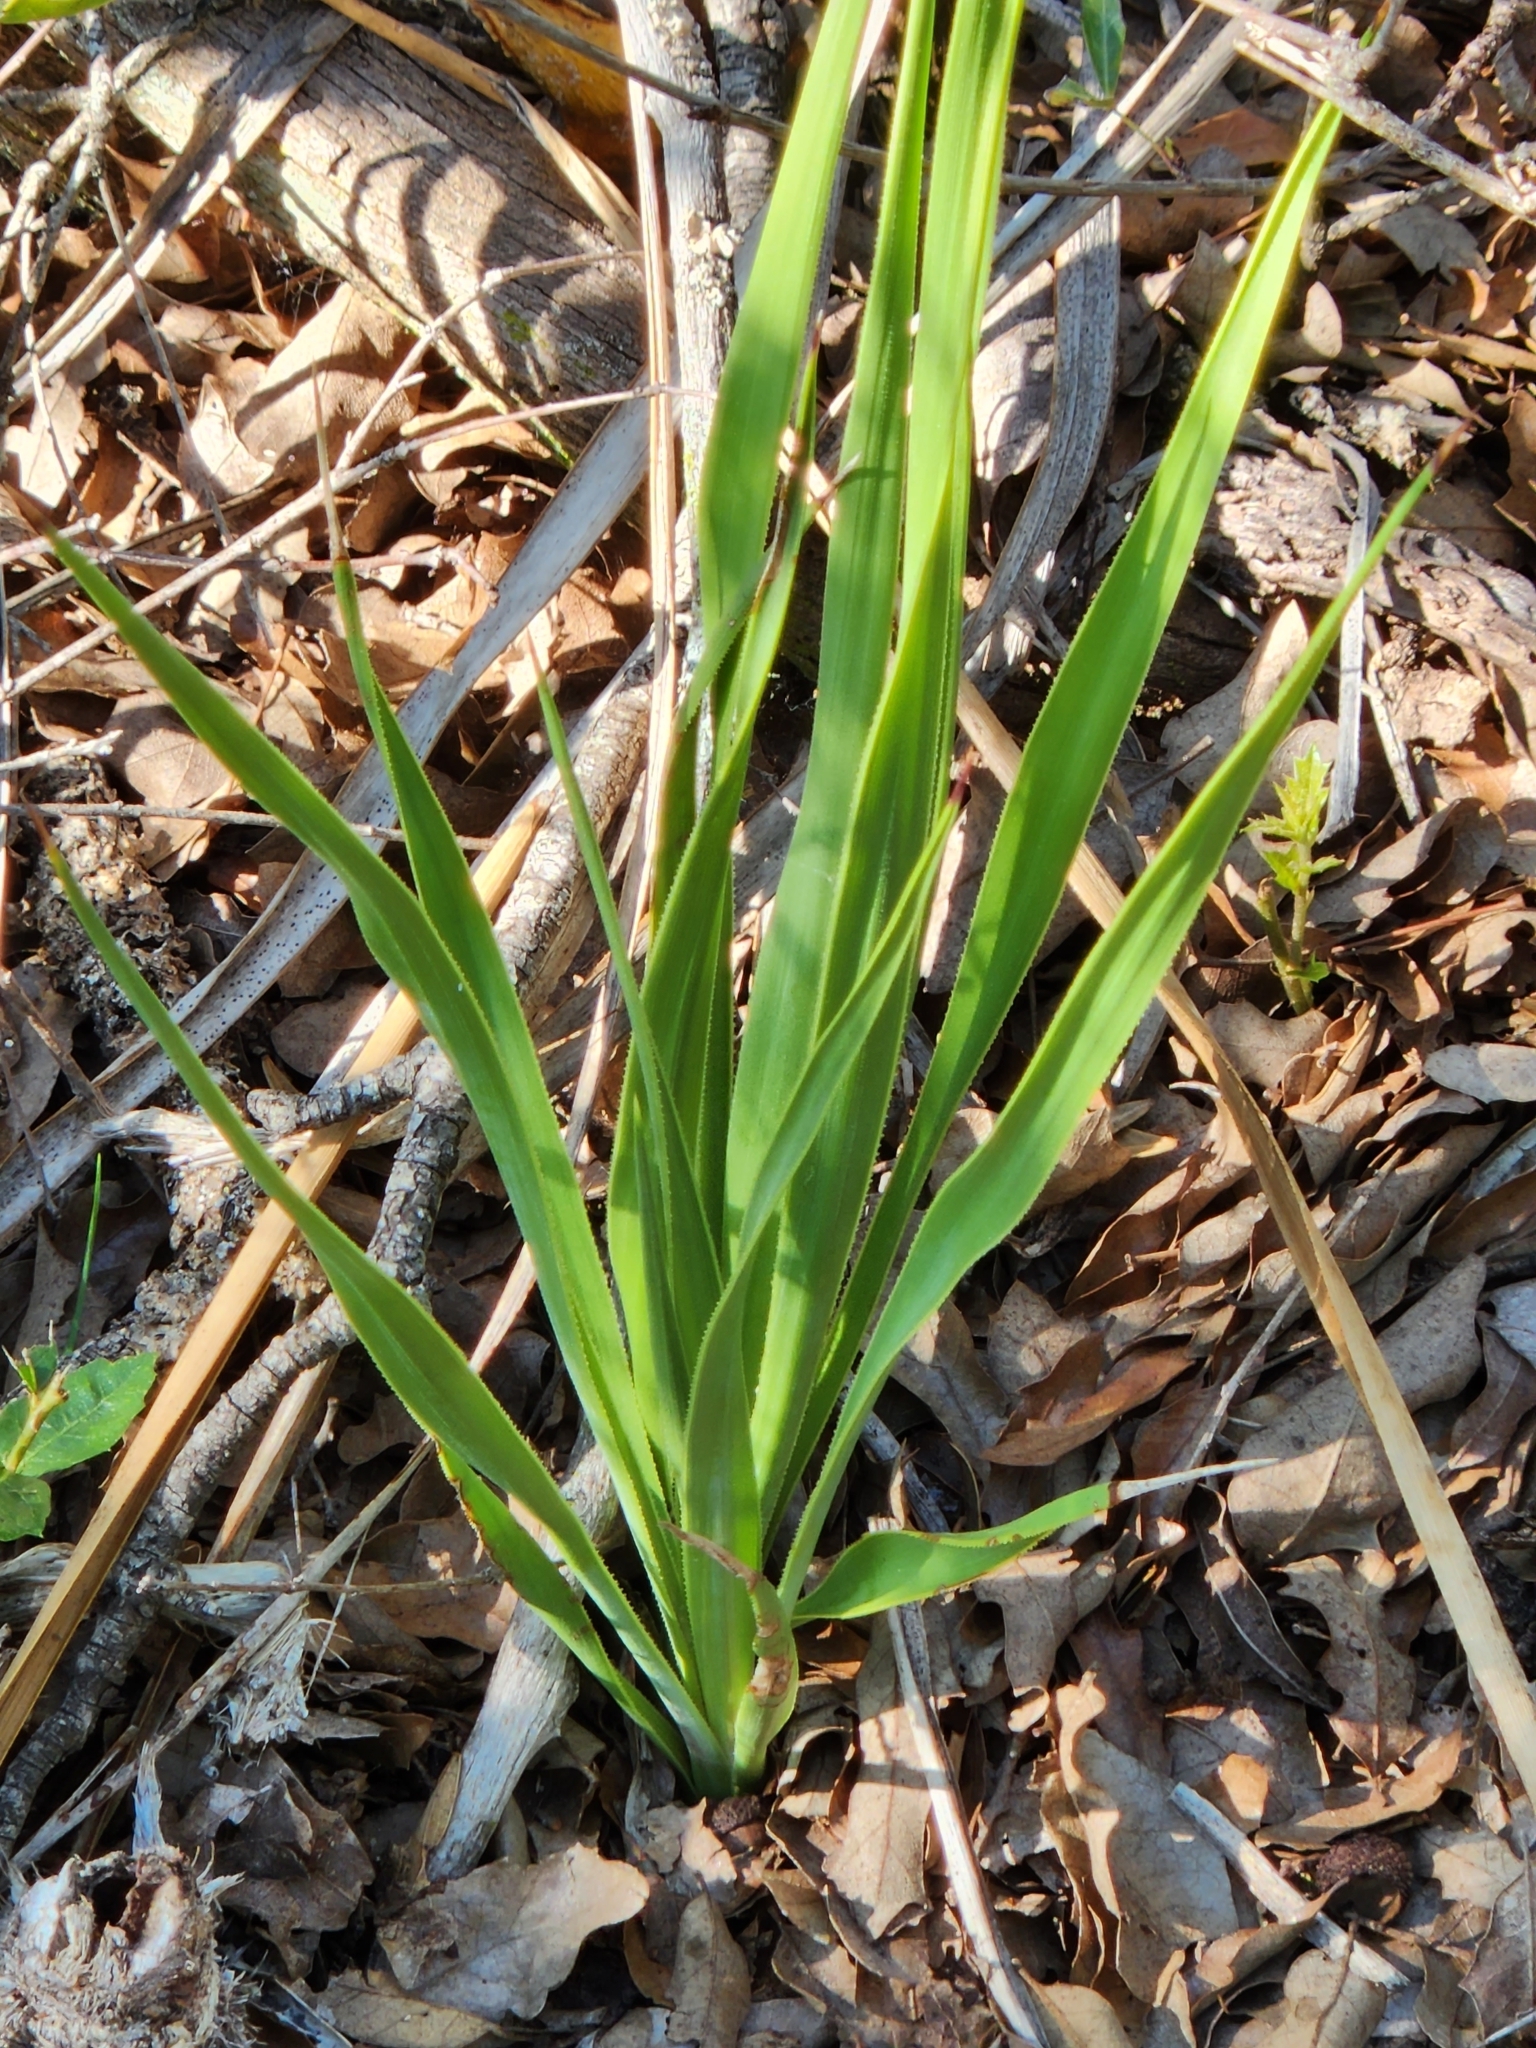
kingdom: Plantae
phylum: Tracheophyta
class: Liliopsida
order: Asparagales
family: Asparagaceae
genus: Yucca
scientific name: Yucca rupicola
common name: Twisted-leaf spanish-dagger
